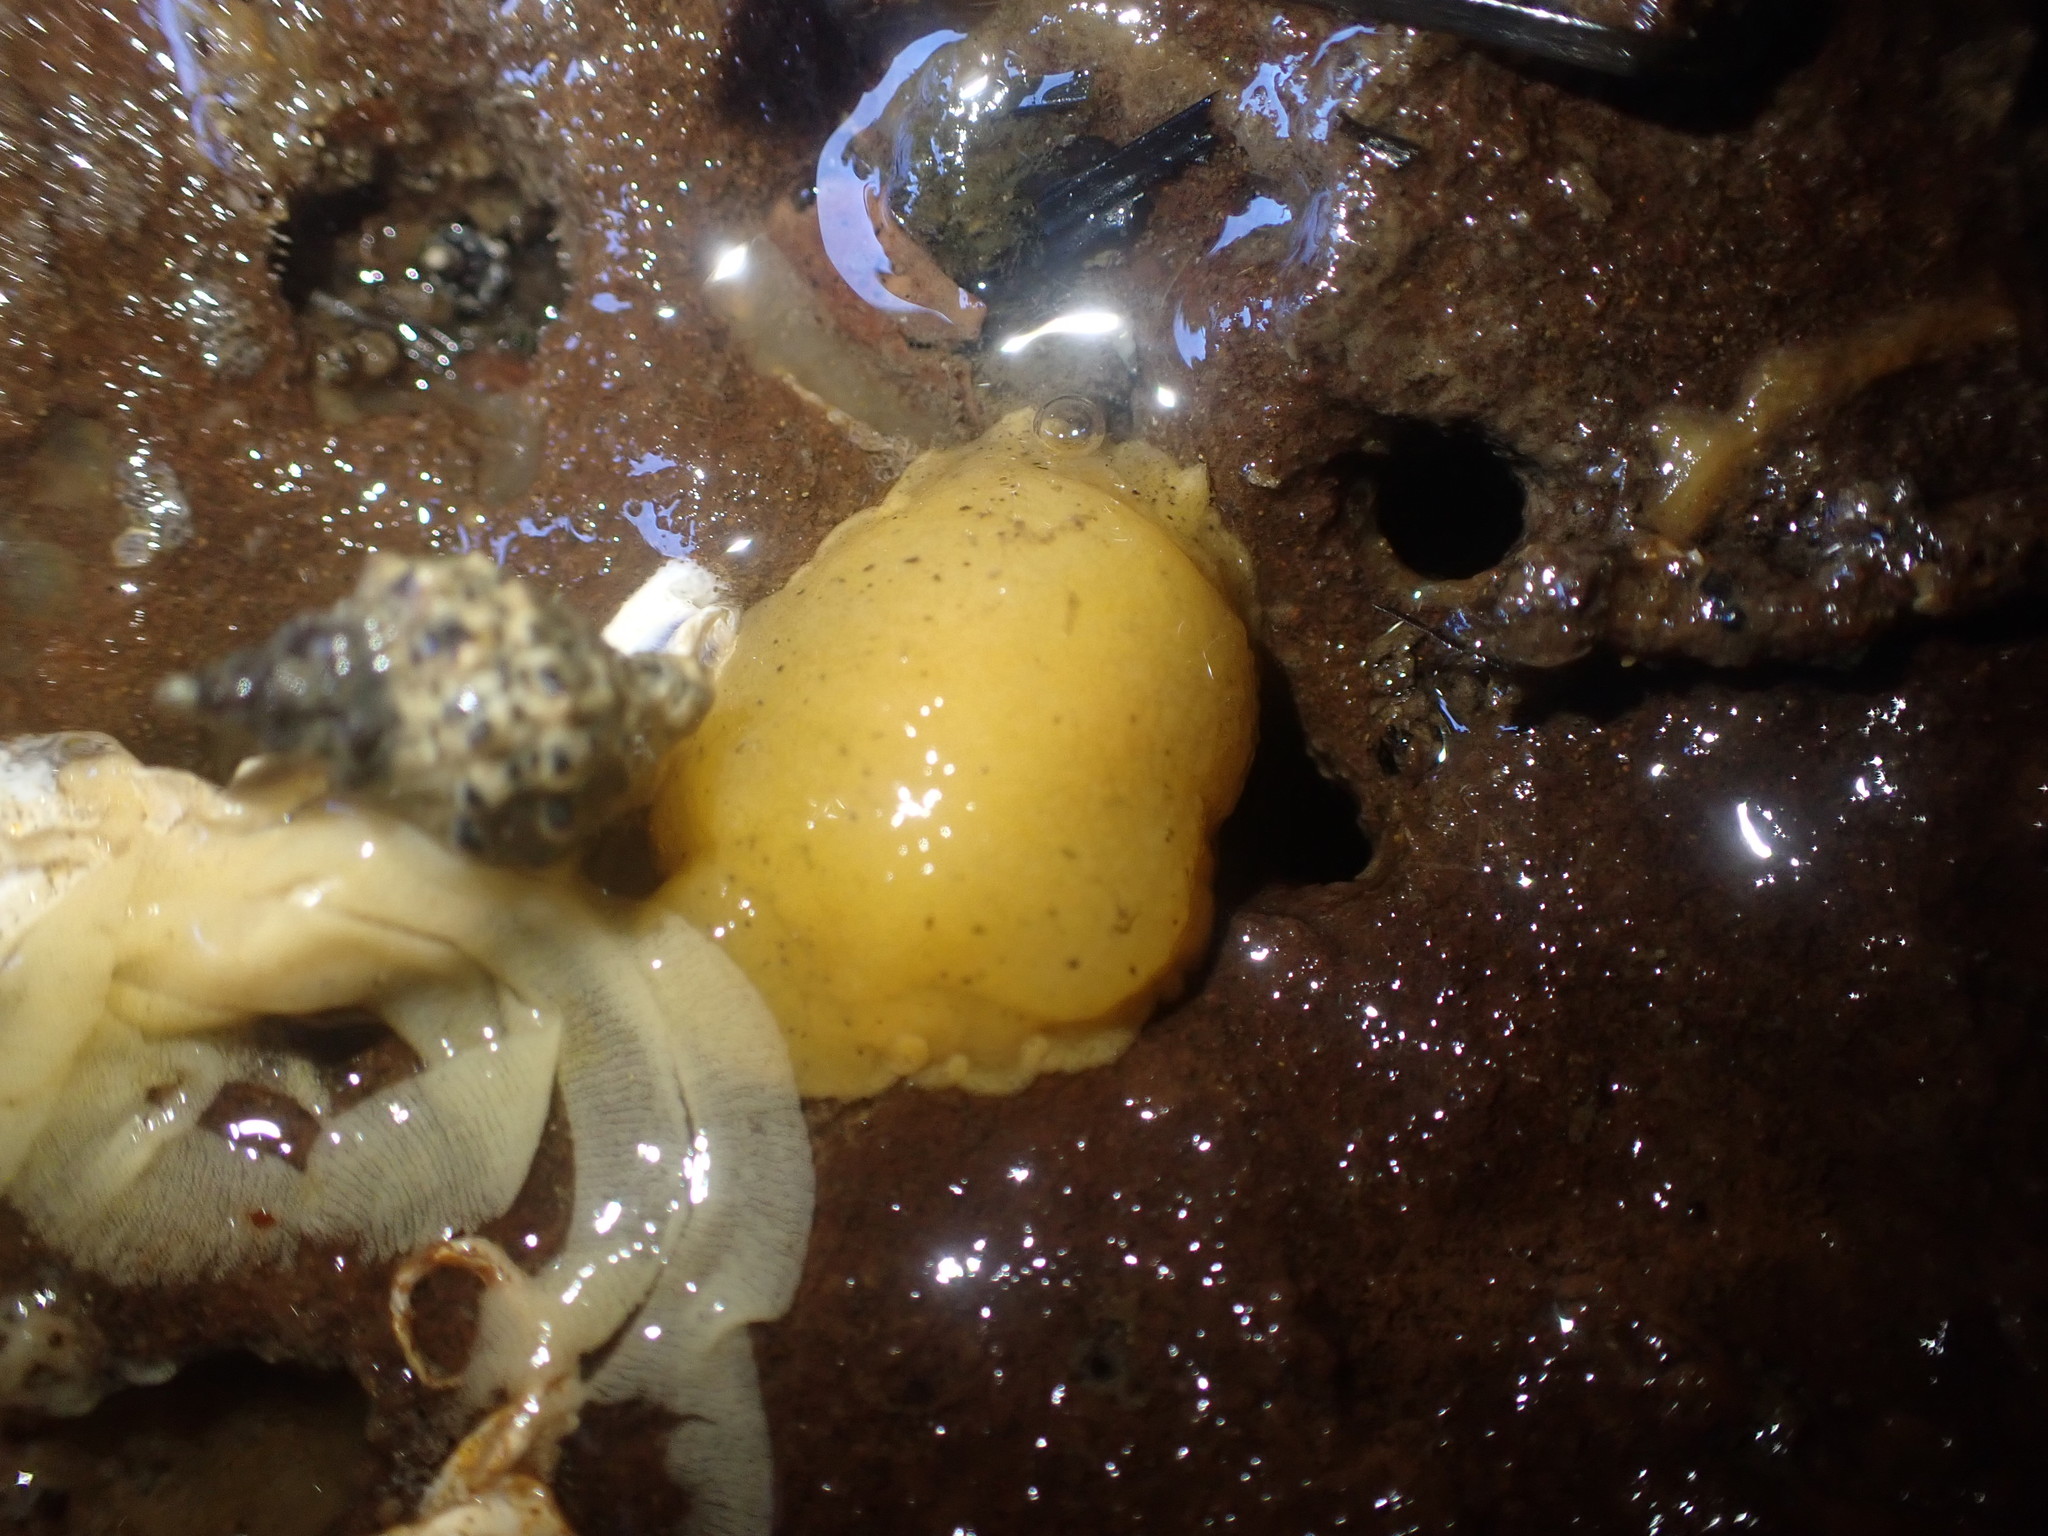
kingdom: Animalia
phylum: Mollusca
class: Gastropoda
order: Nudibranchia
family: Dorididae
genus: Doriopsis
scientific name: Doriopsis granulosa
